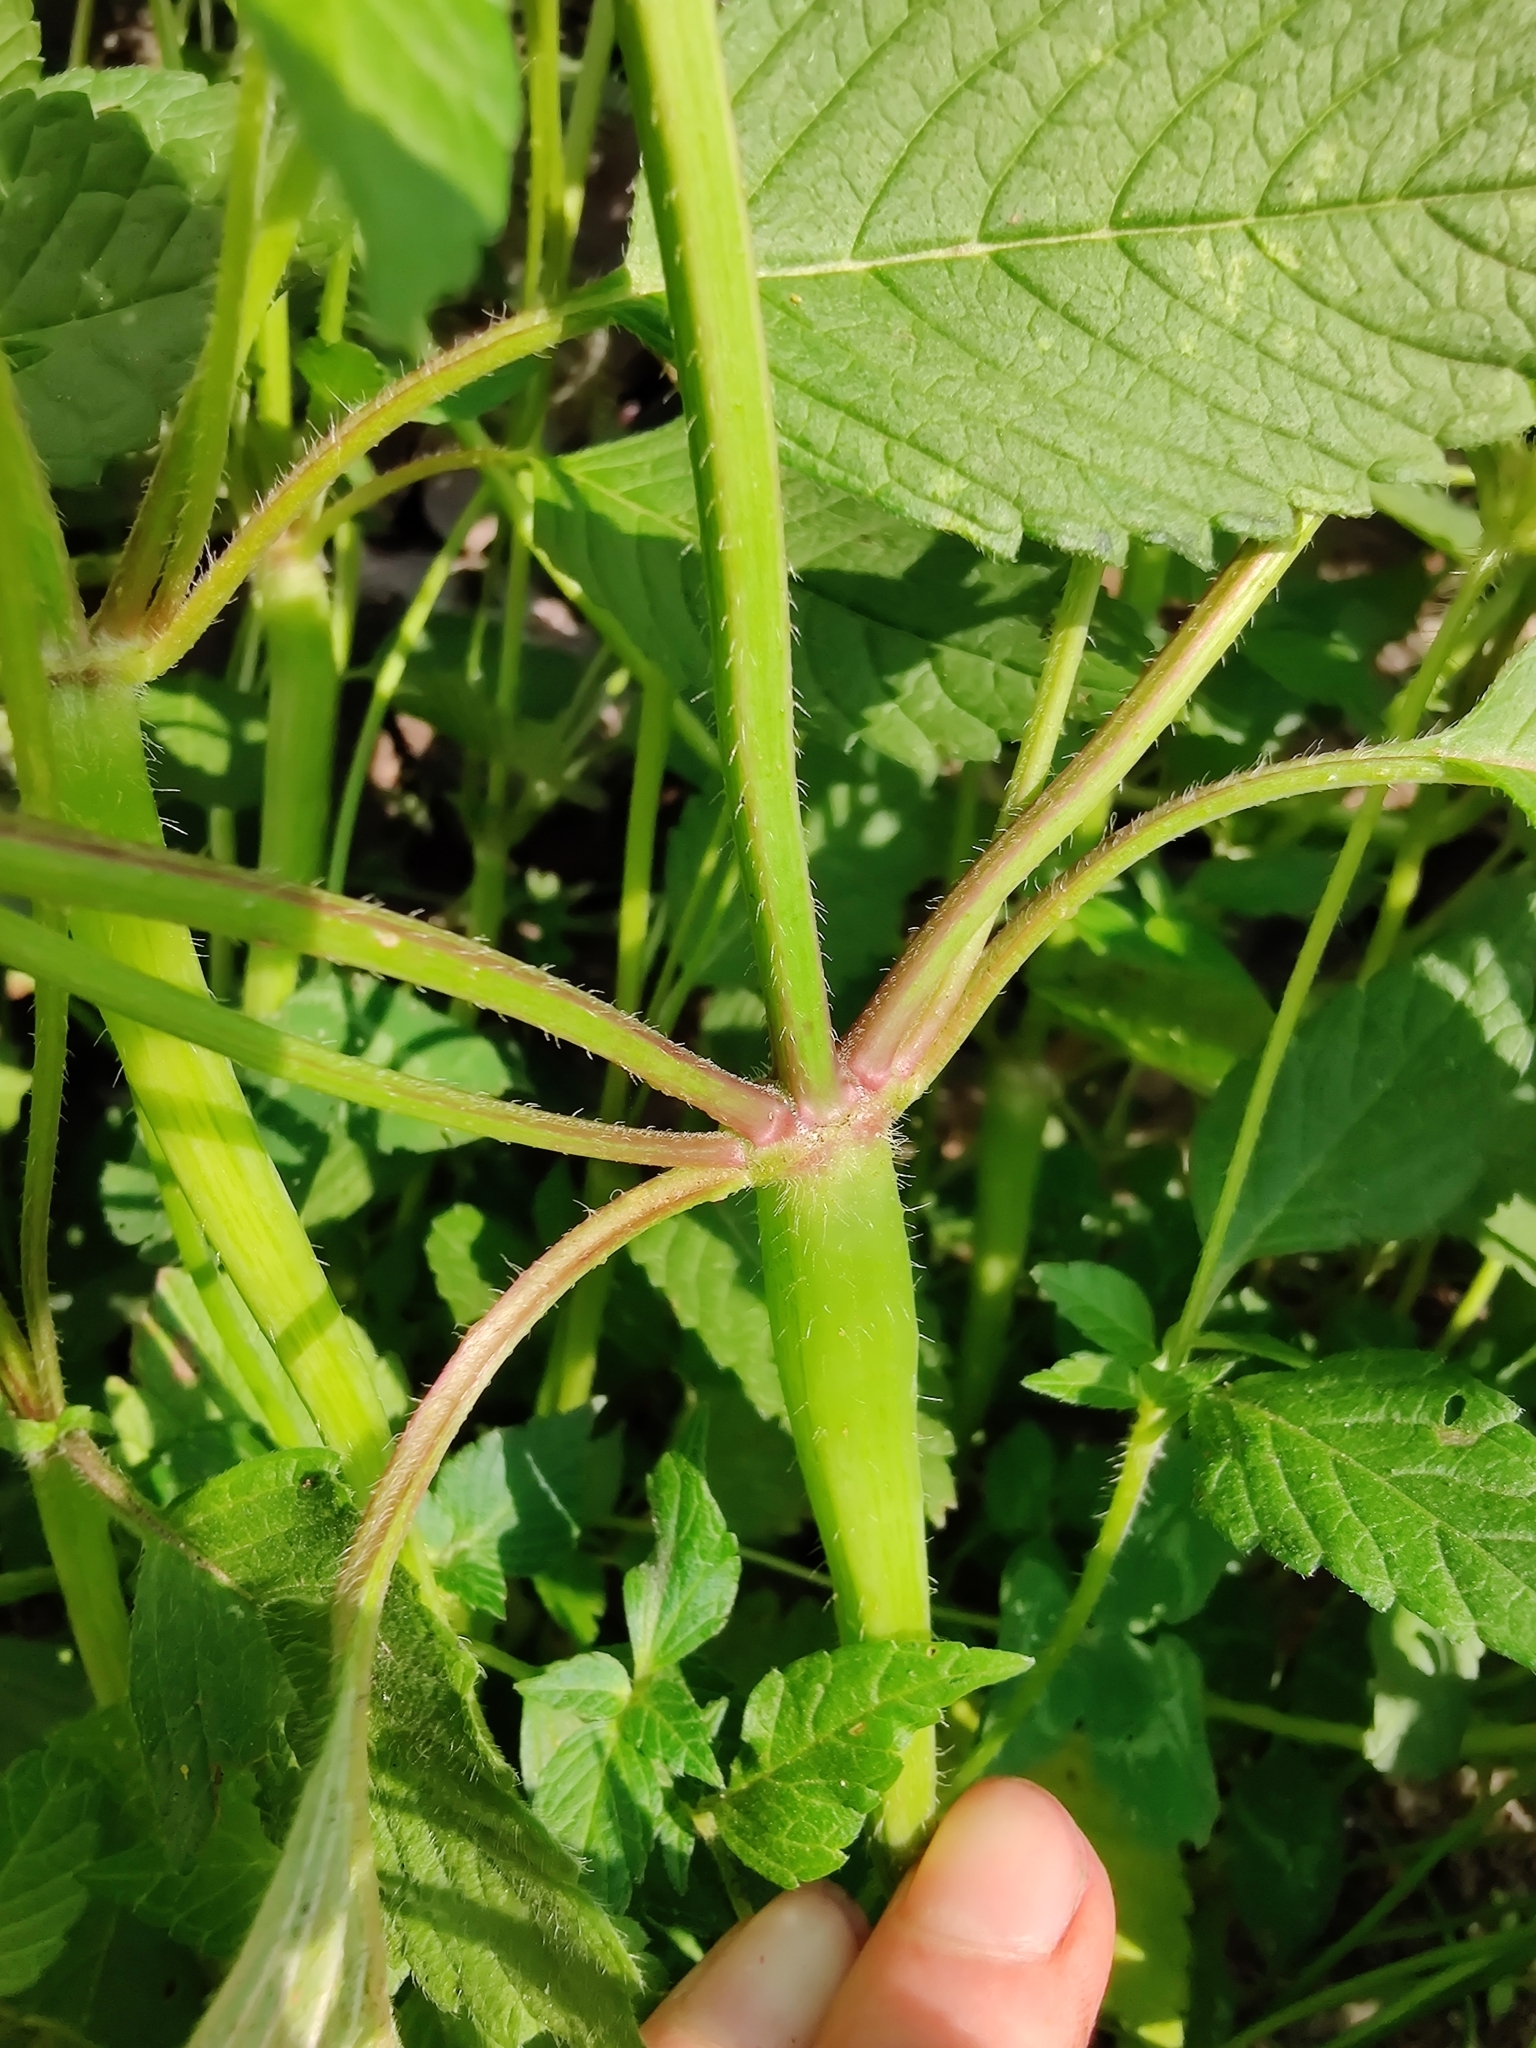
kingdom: Plantae
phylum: Tracheophyta
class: Magnoliopsida
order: Lamiales
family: Lamiaceae
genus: Galeopsis
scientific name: Galeopsis tetrahit
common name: Common hemp-nettle
